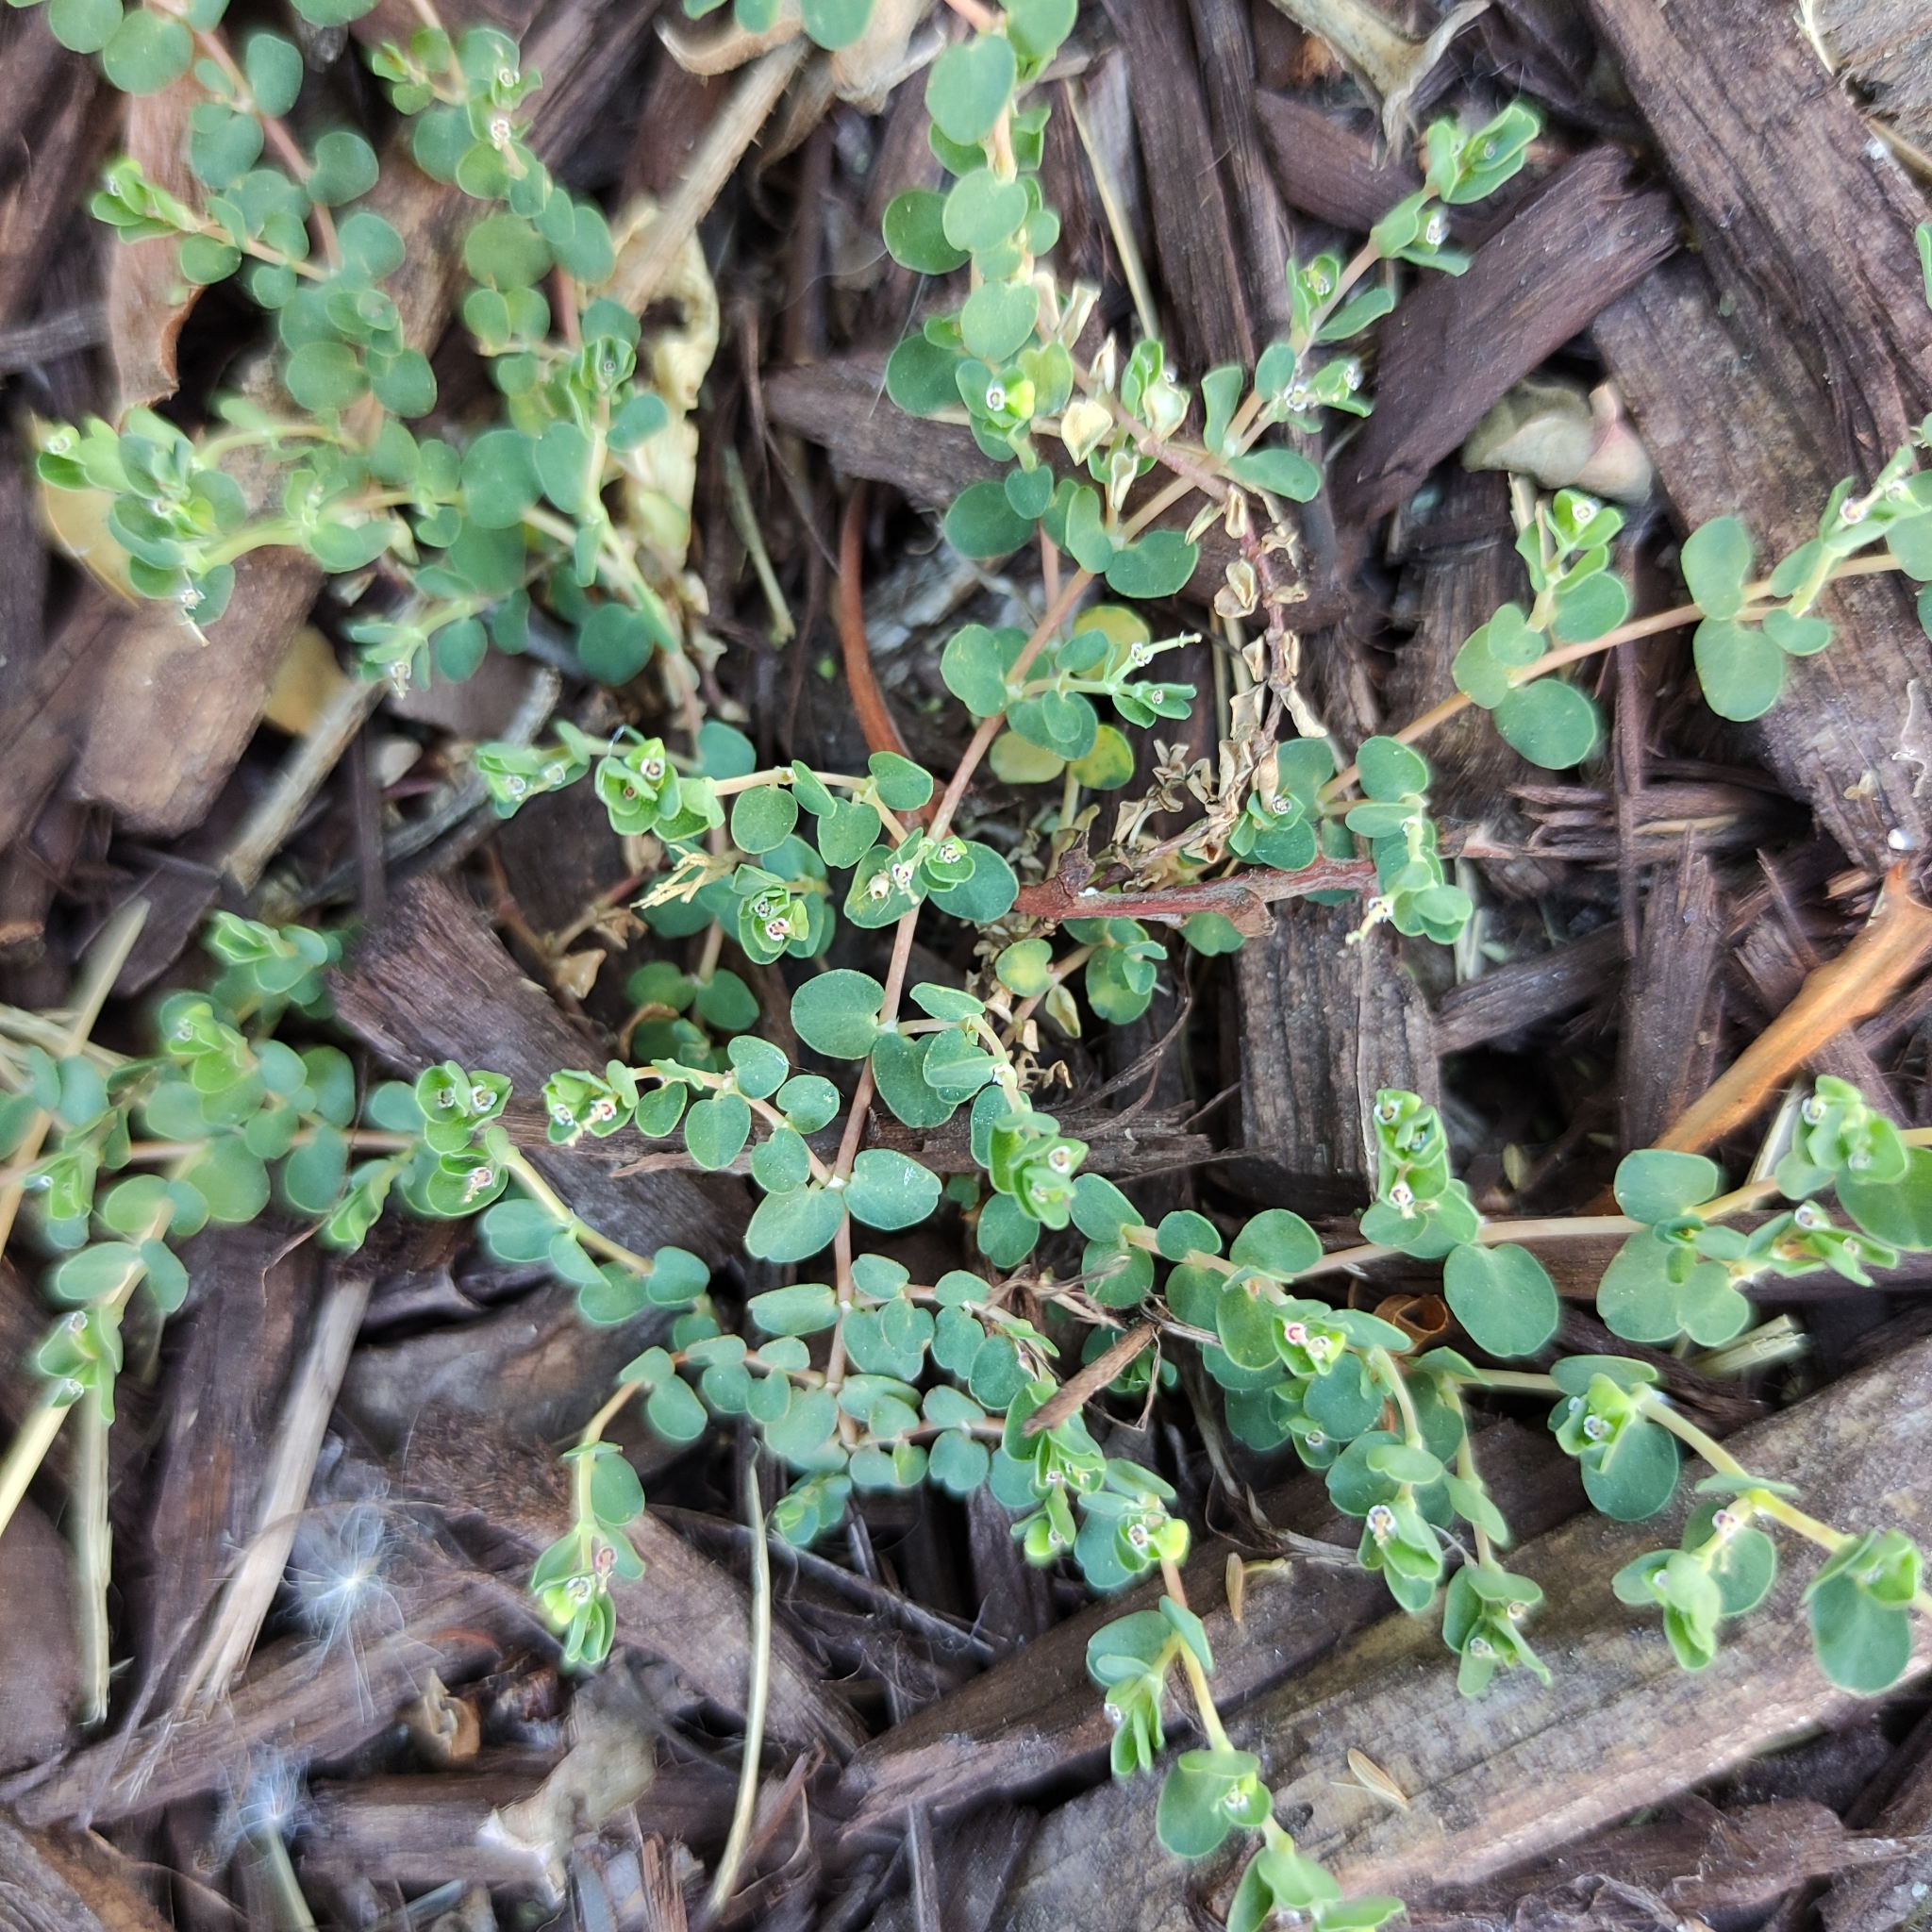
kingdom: Plantae
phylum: Tracheophyta
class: Magnoliopsida
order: Malpighiales
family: Euphorbiaceae
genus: Euphorbia
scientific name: Euphorbia serpens
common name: Matted sandmat
